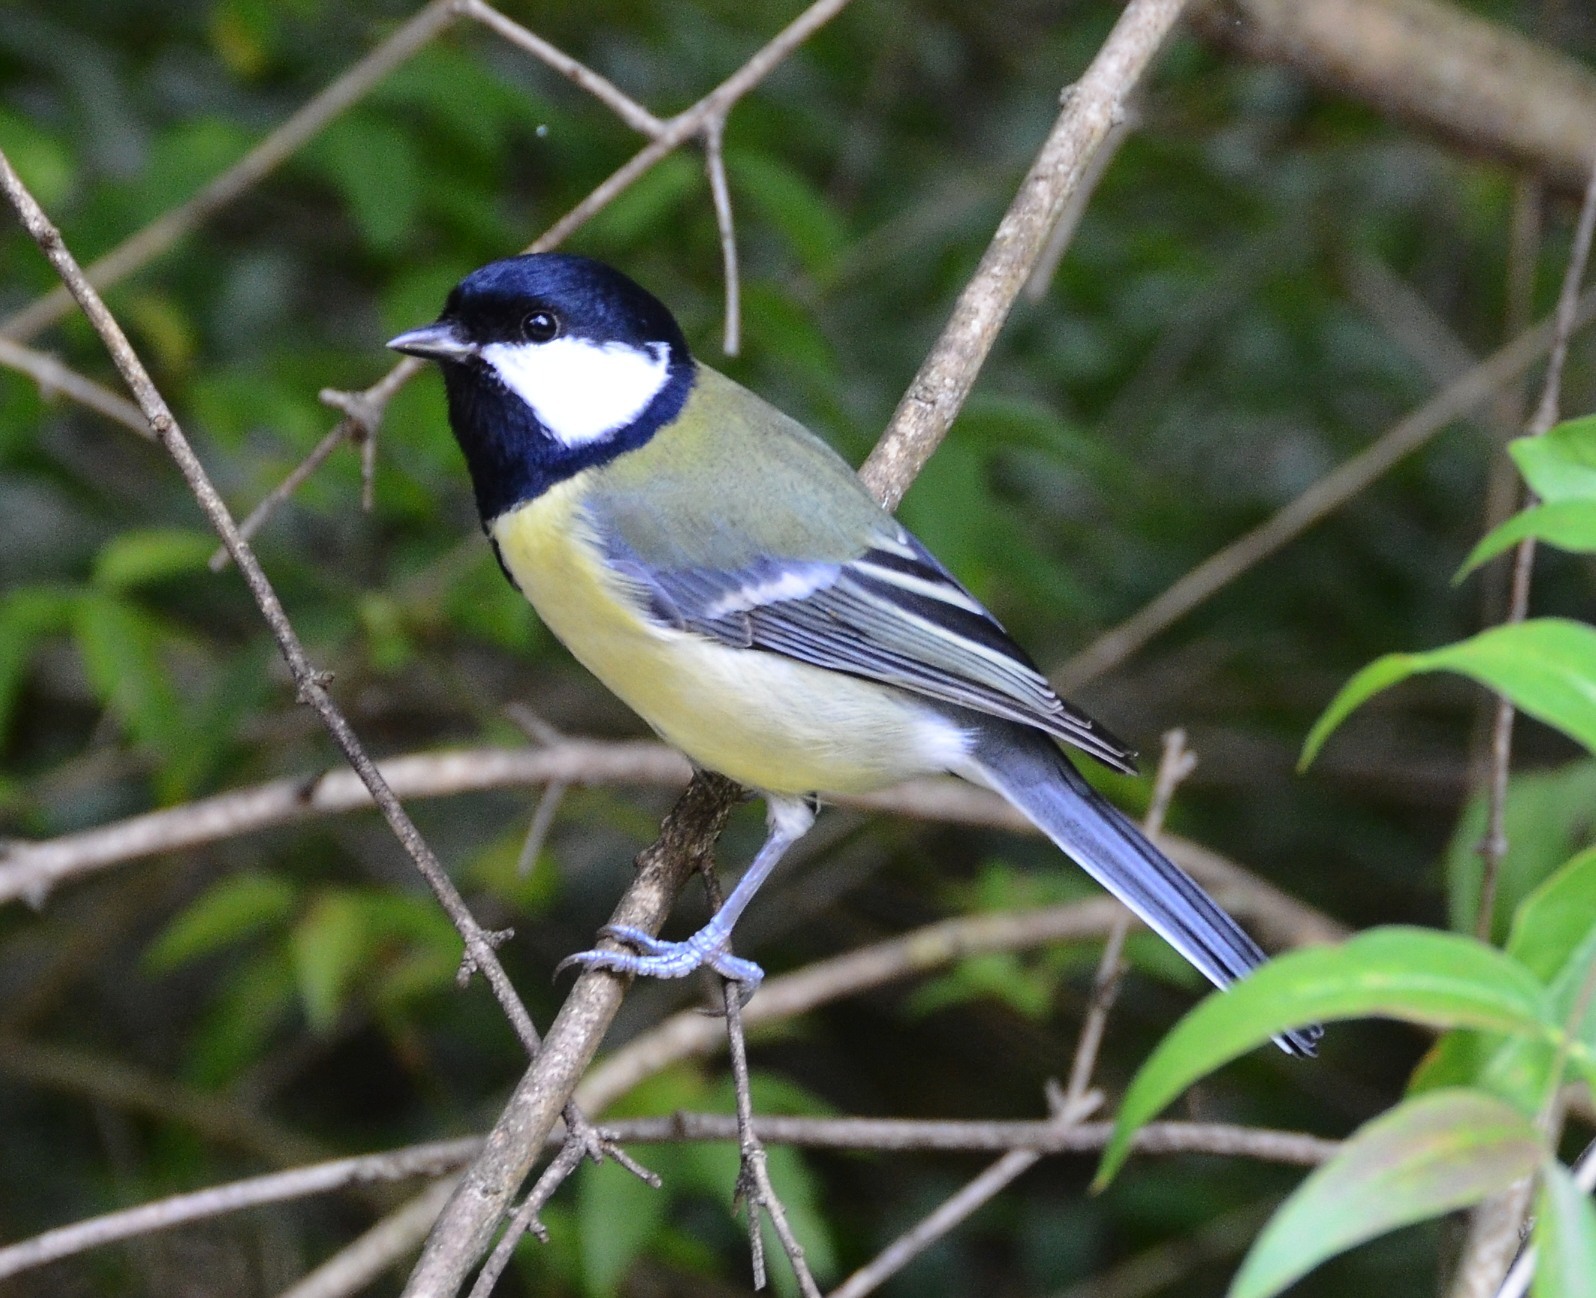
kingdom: Animalia
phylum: Chordata
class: Aves
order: Passeriformes
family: Paridae
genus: Parus
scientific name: Parus major
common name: Great tit
